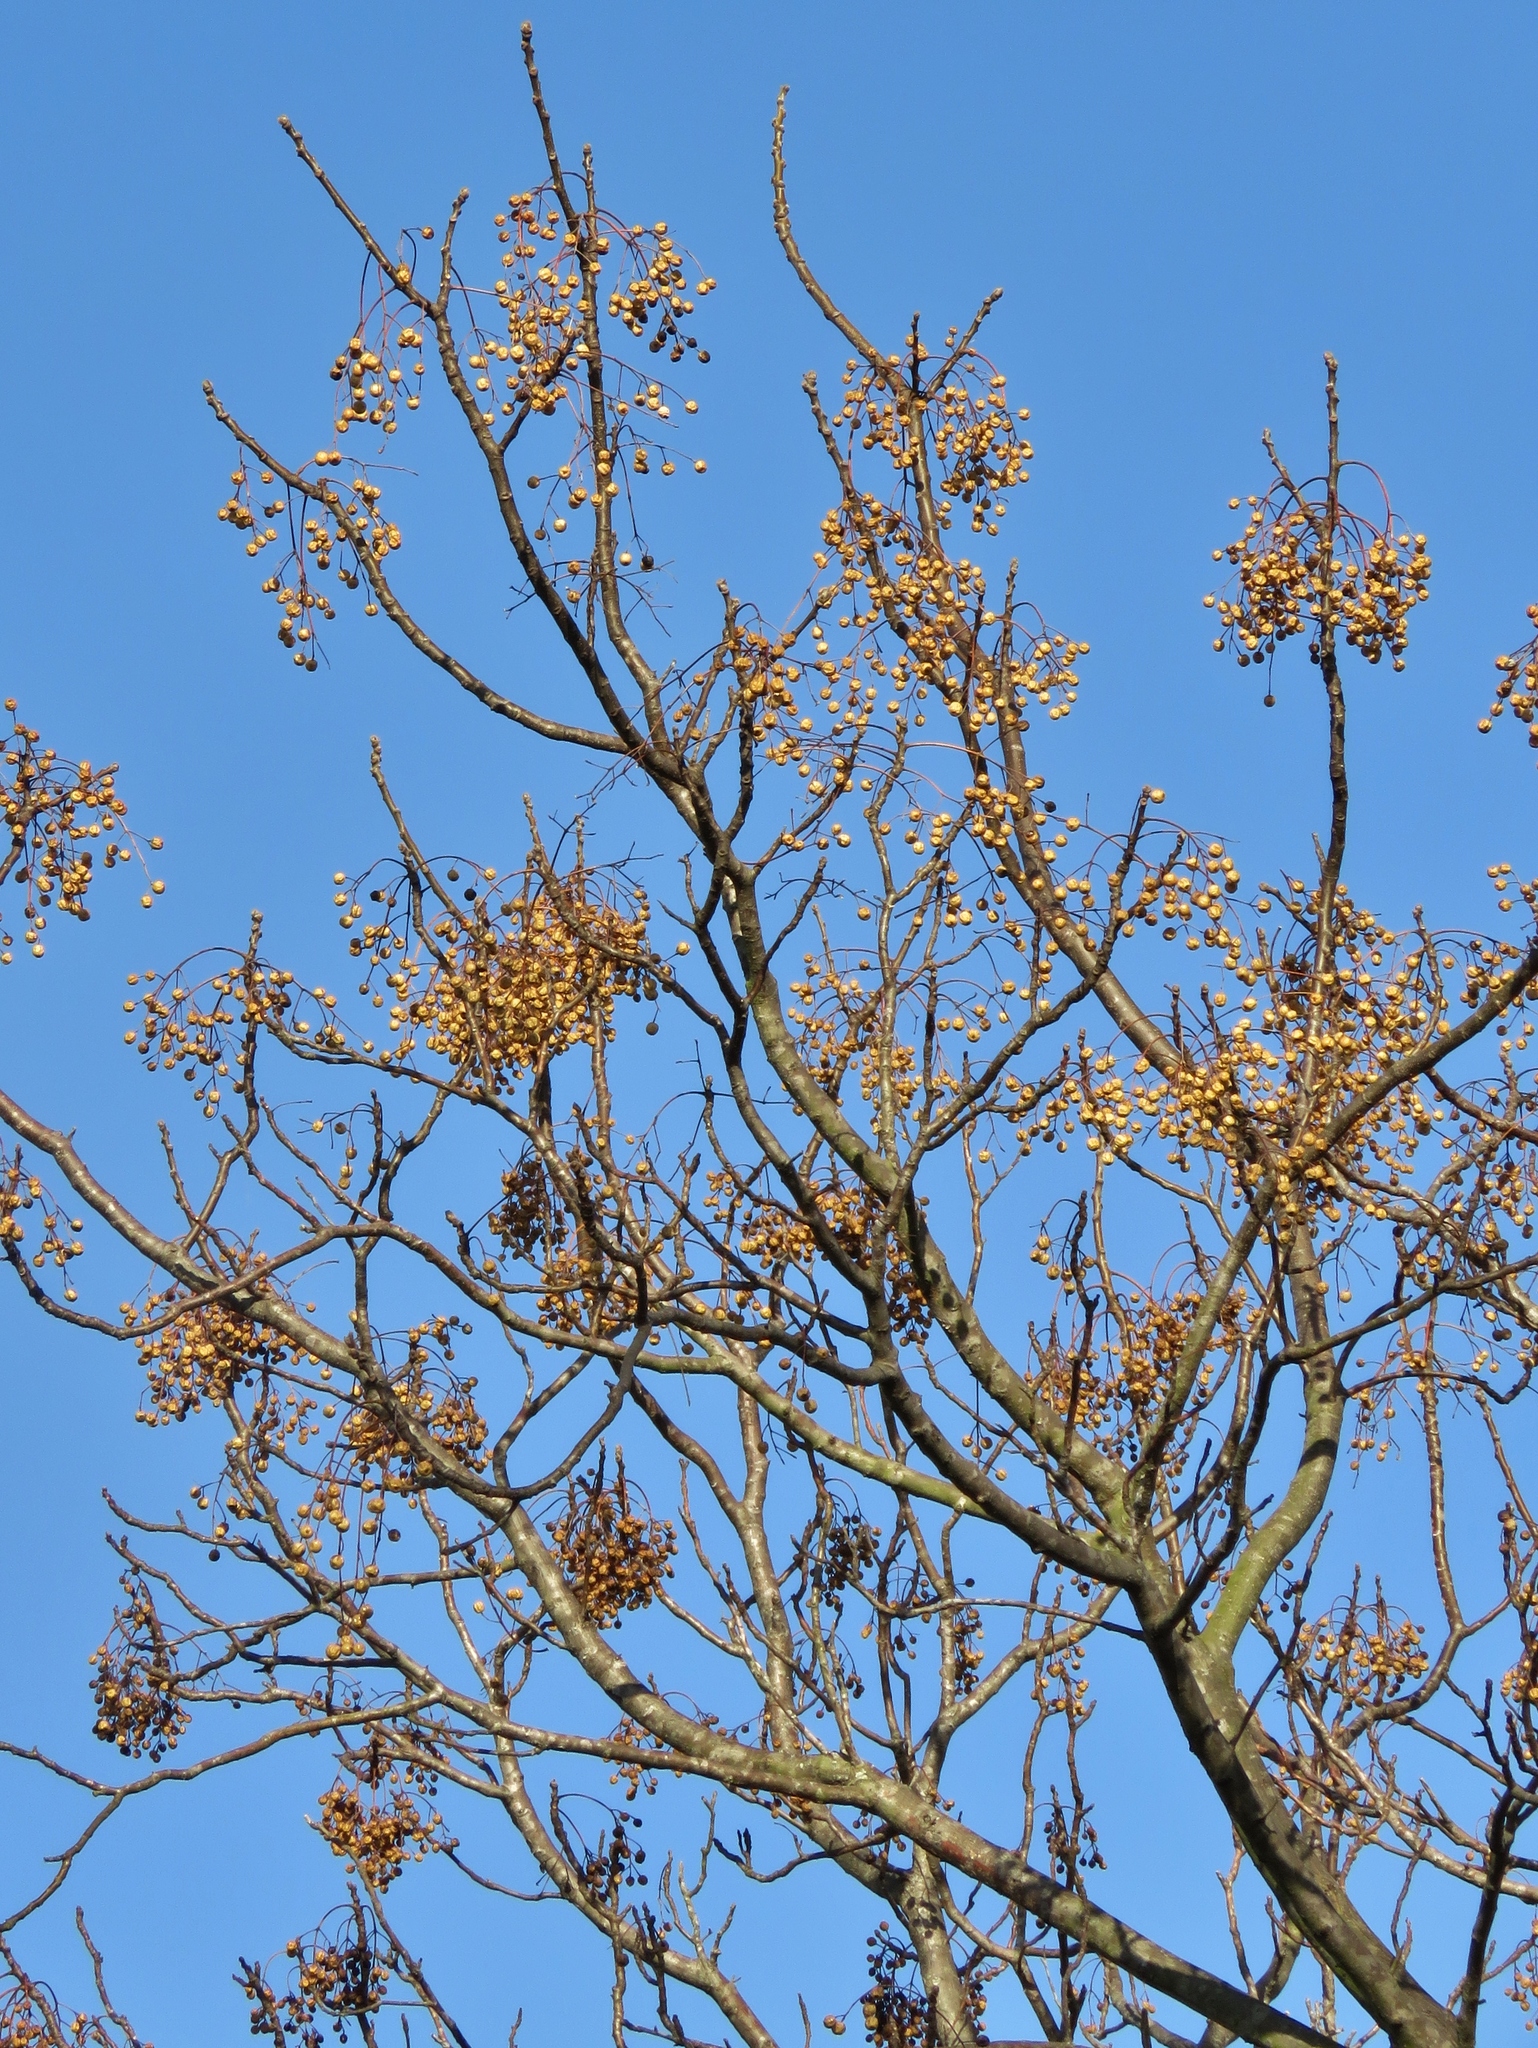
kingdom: Plantae
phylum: Tracheophyta
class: Magnoliopsida
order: Sapindales
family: Meliaceae
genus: Melia
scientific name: Melia azedarach
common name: Chinaberrytree
